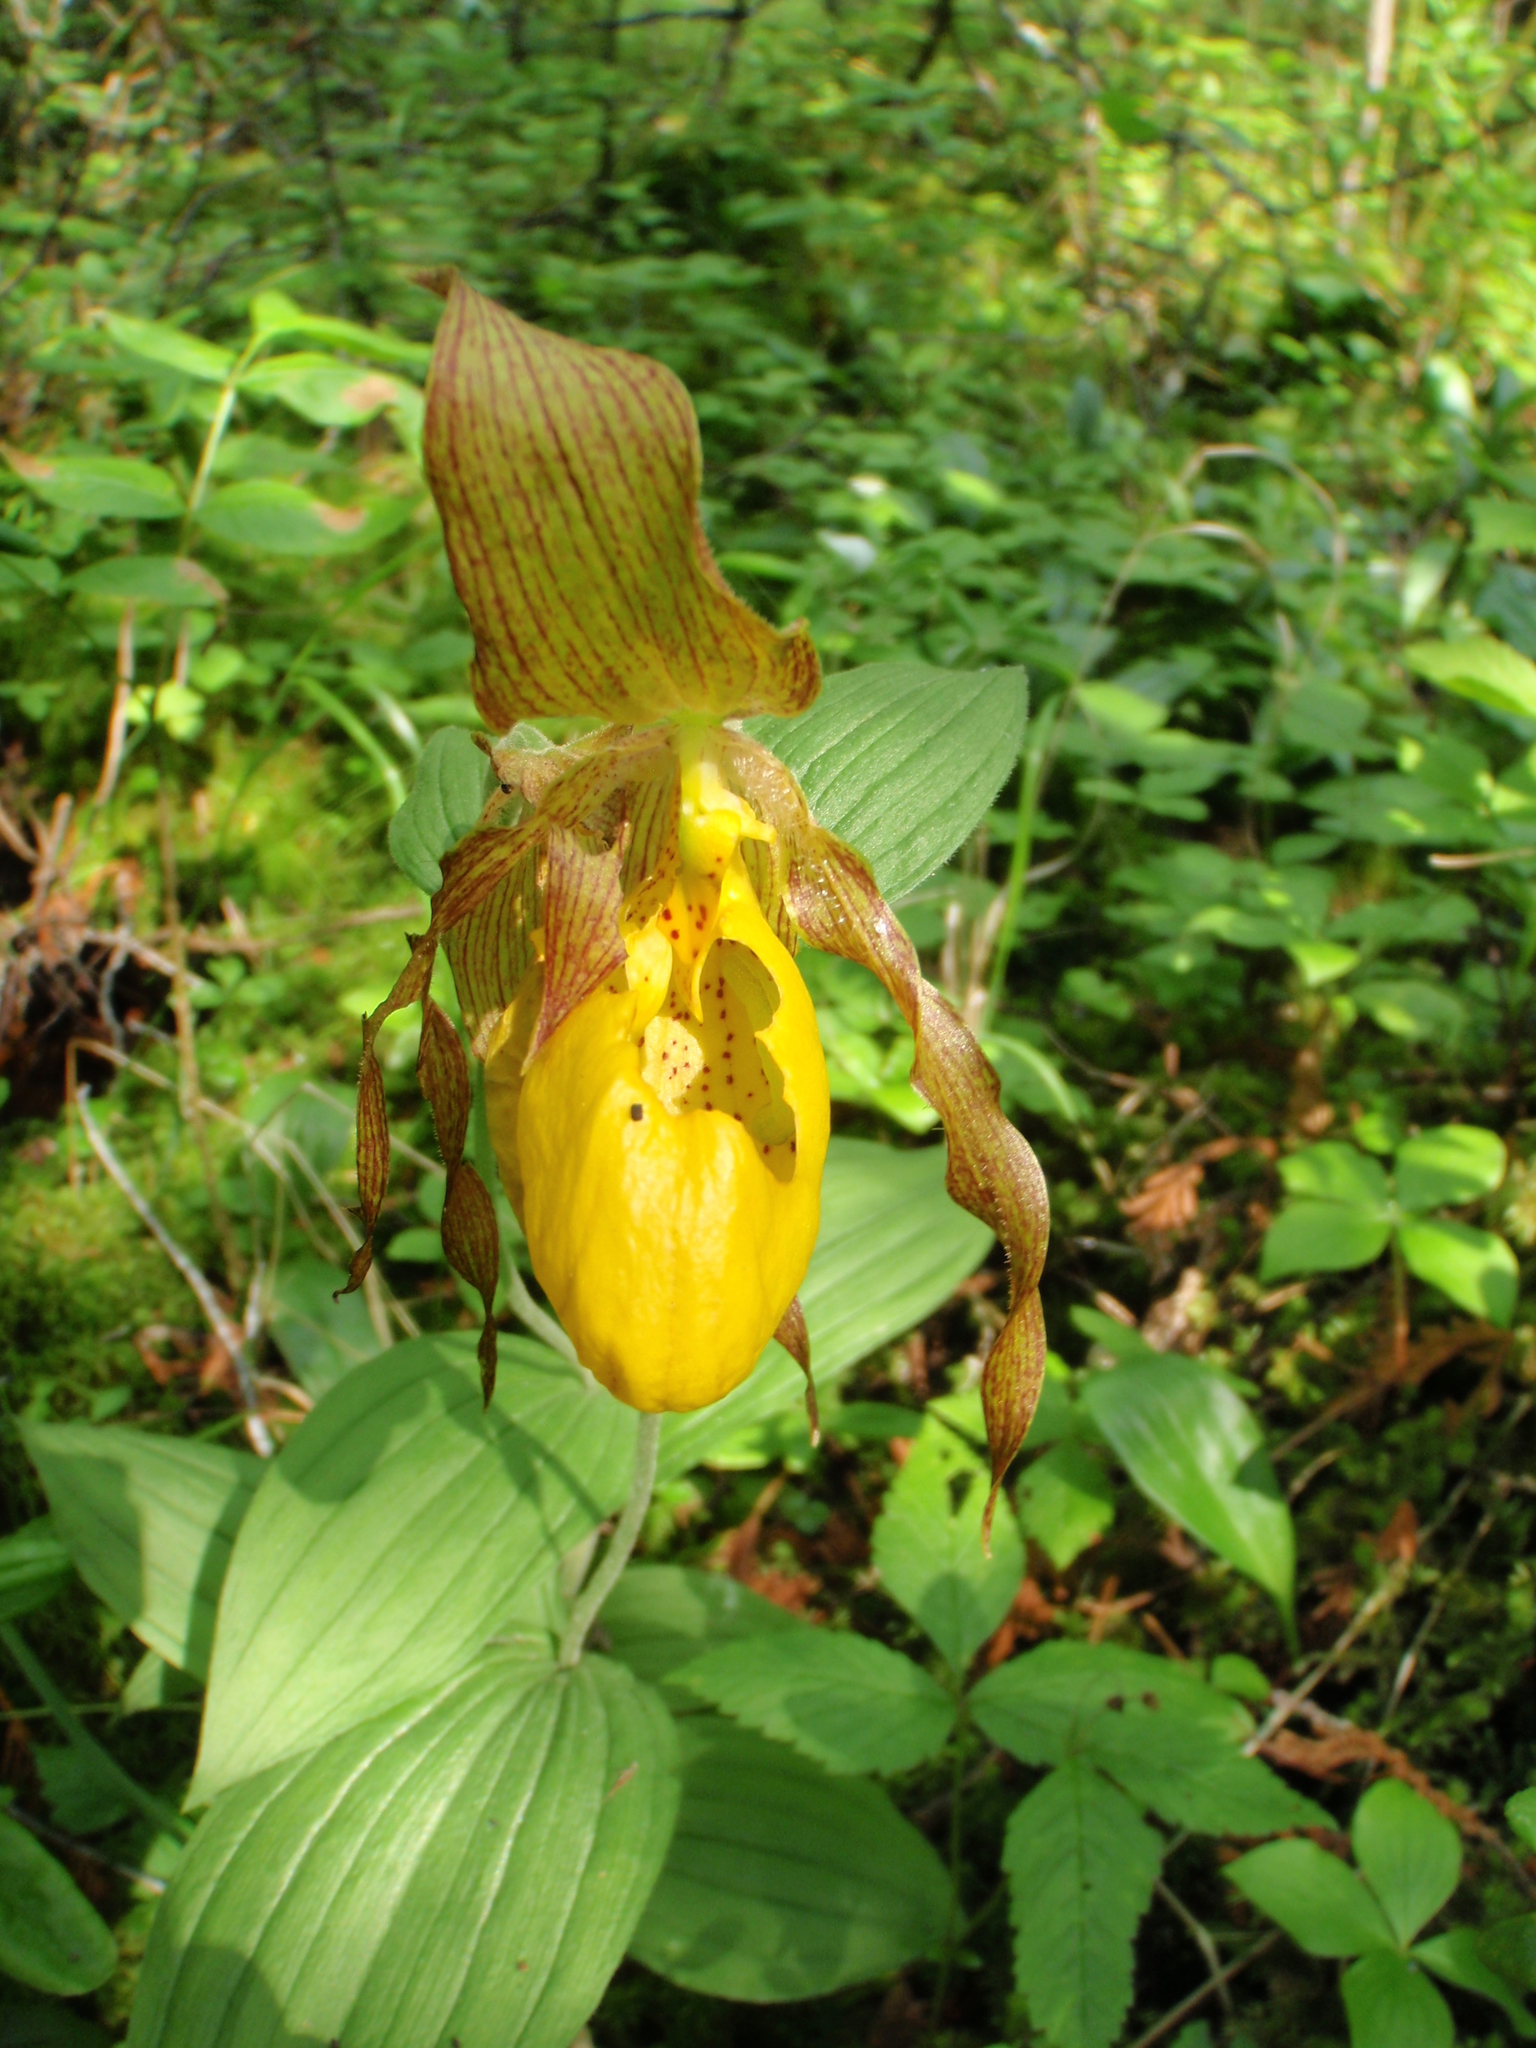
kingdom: Plantae
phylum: Tracheophyta
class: Liliopsida
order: Asparagales
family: Orchidaceae
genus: Cypripedium
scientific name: Cypripedium parviflorum
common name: American yellow lady's-slipper
